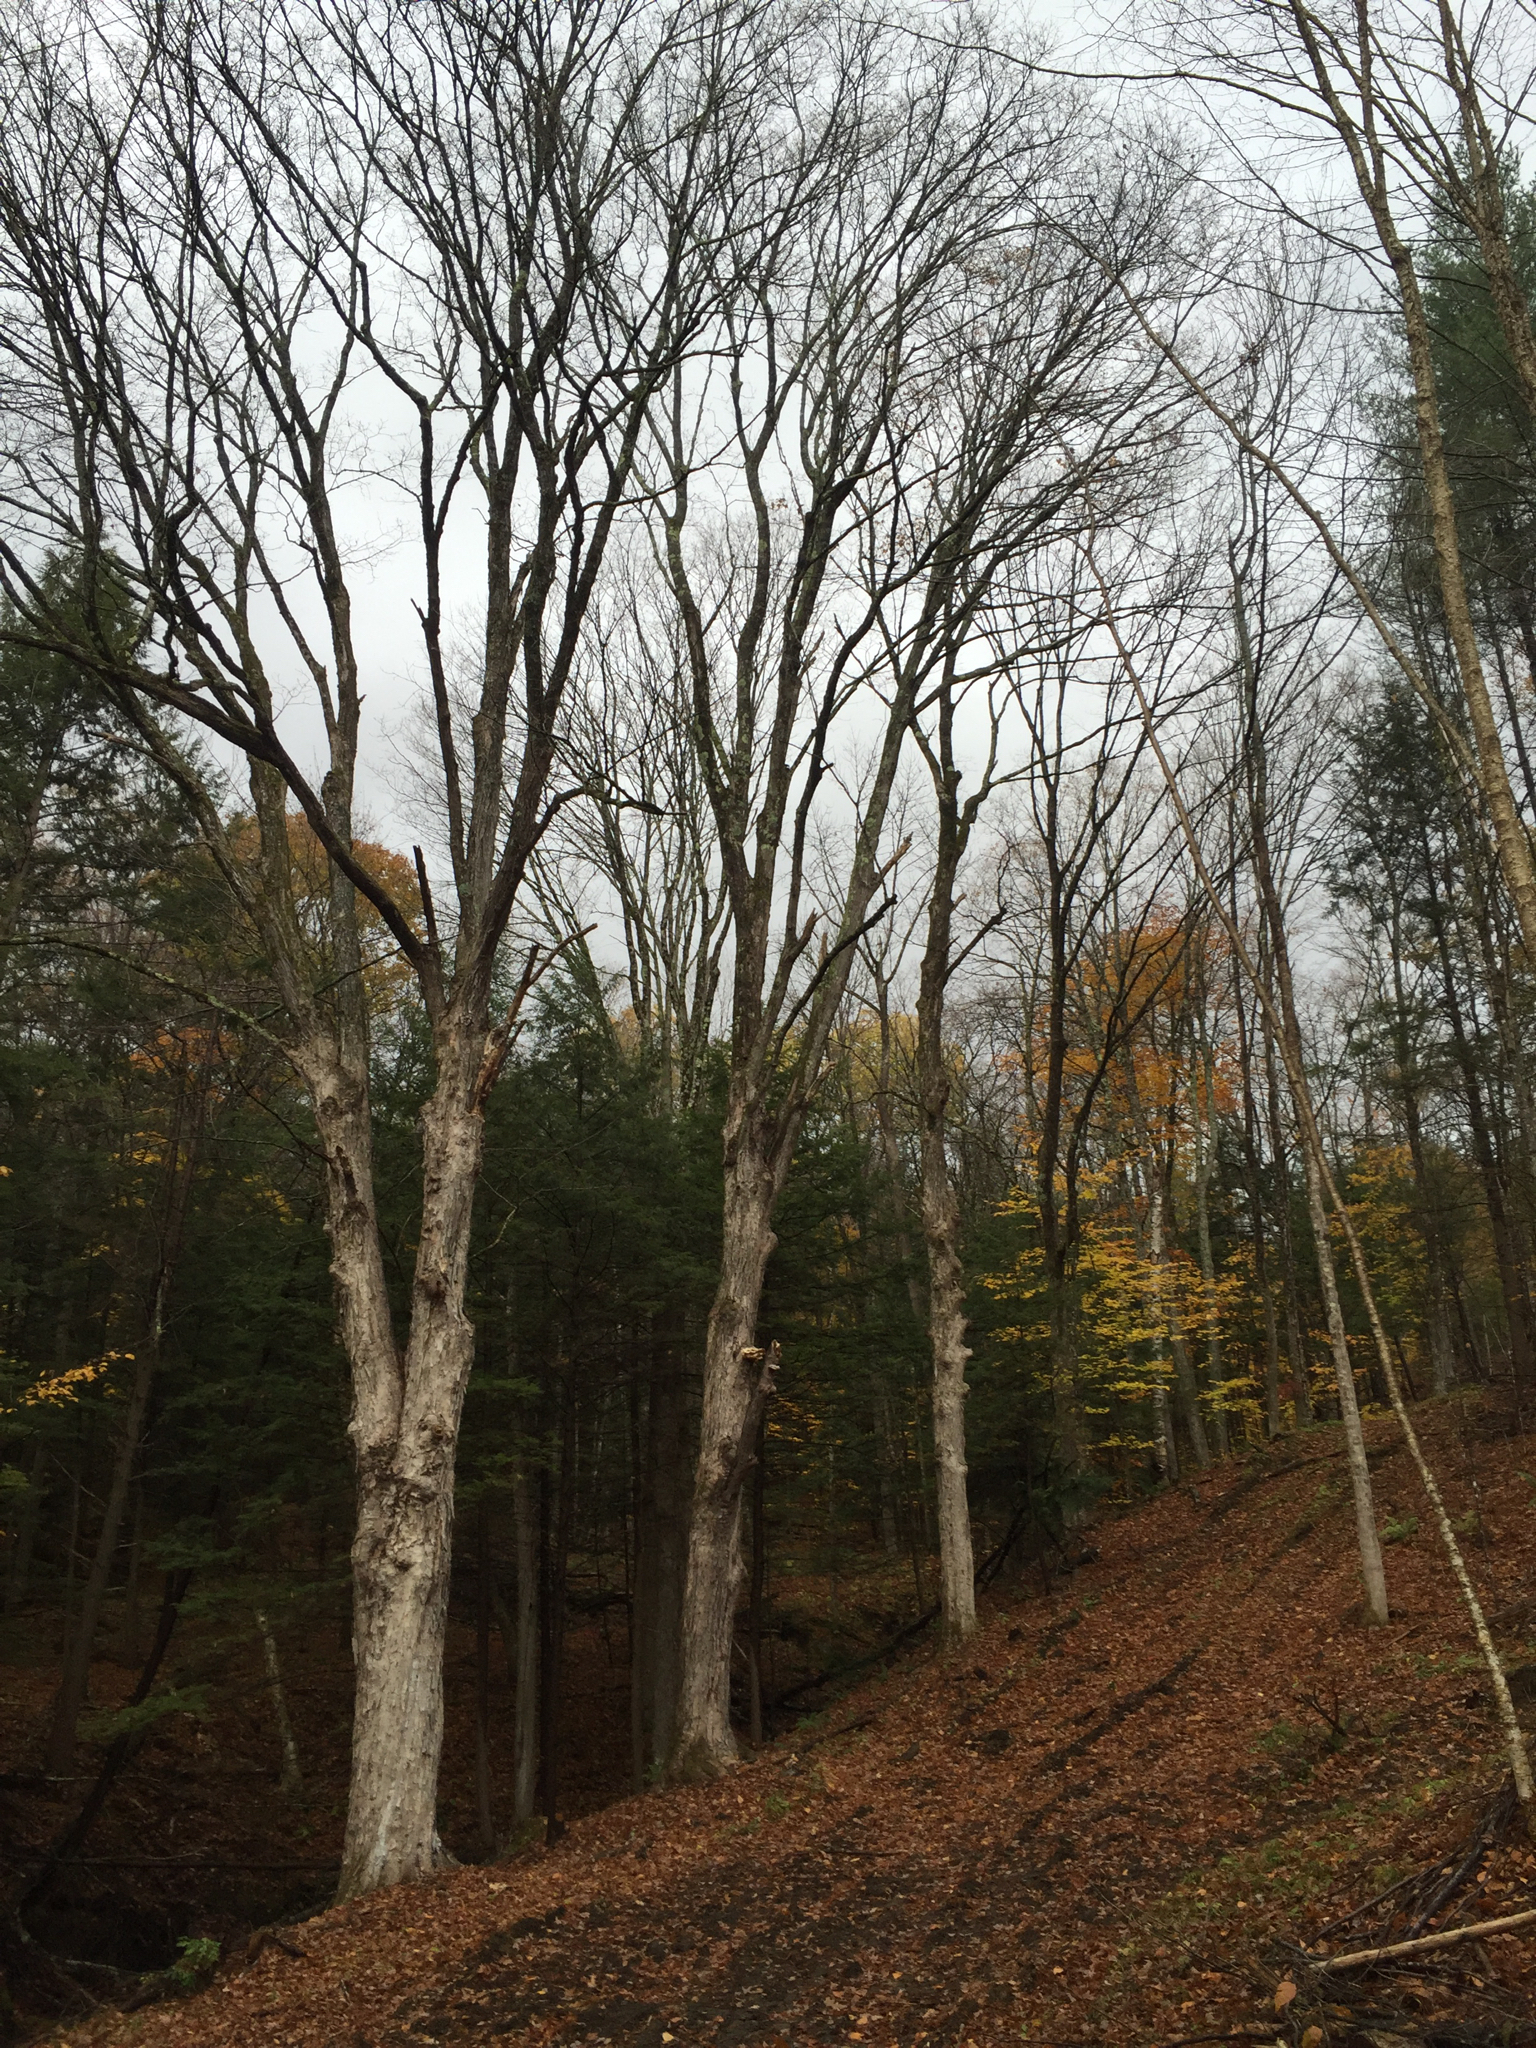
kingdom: Plantae
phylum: Tracheophyta
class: Magnoliopsida
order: Sapindales
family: Sapindaceae
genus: Acer
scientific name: Acer saccharum
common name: Sugar maple
